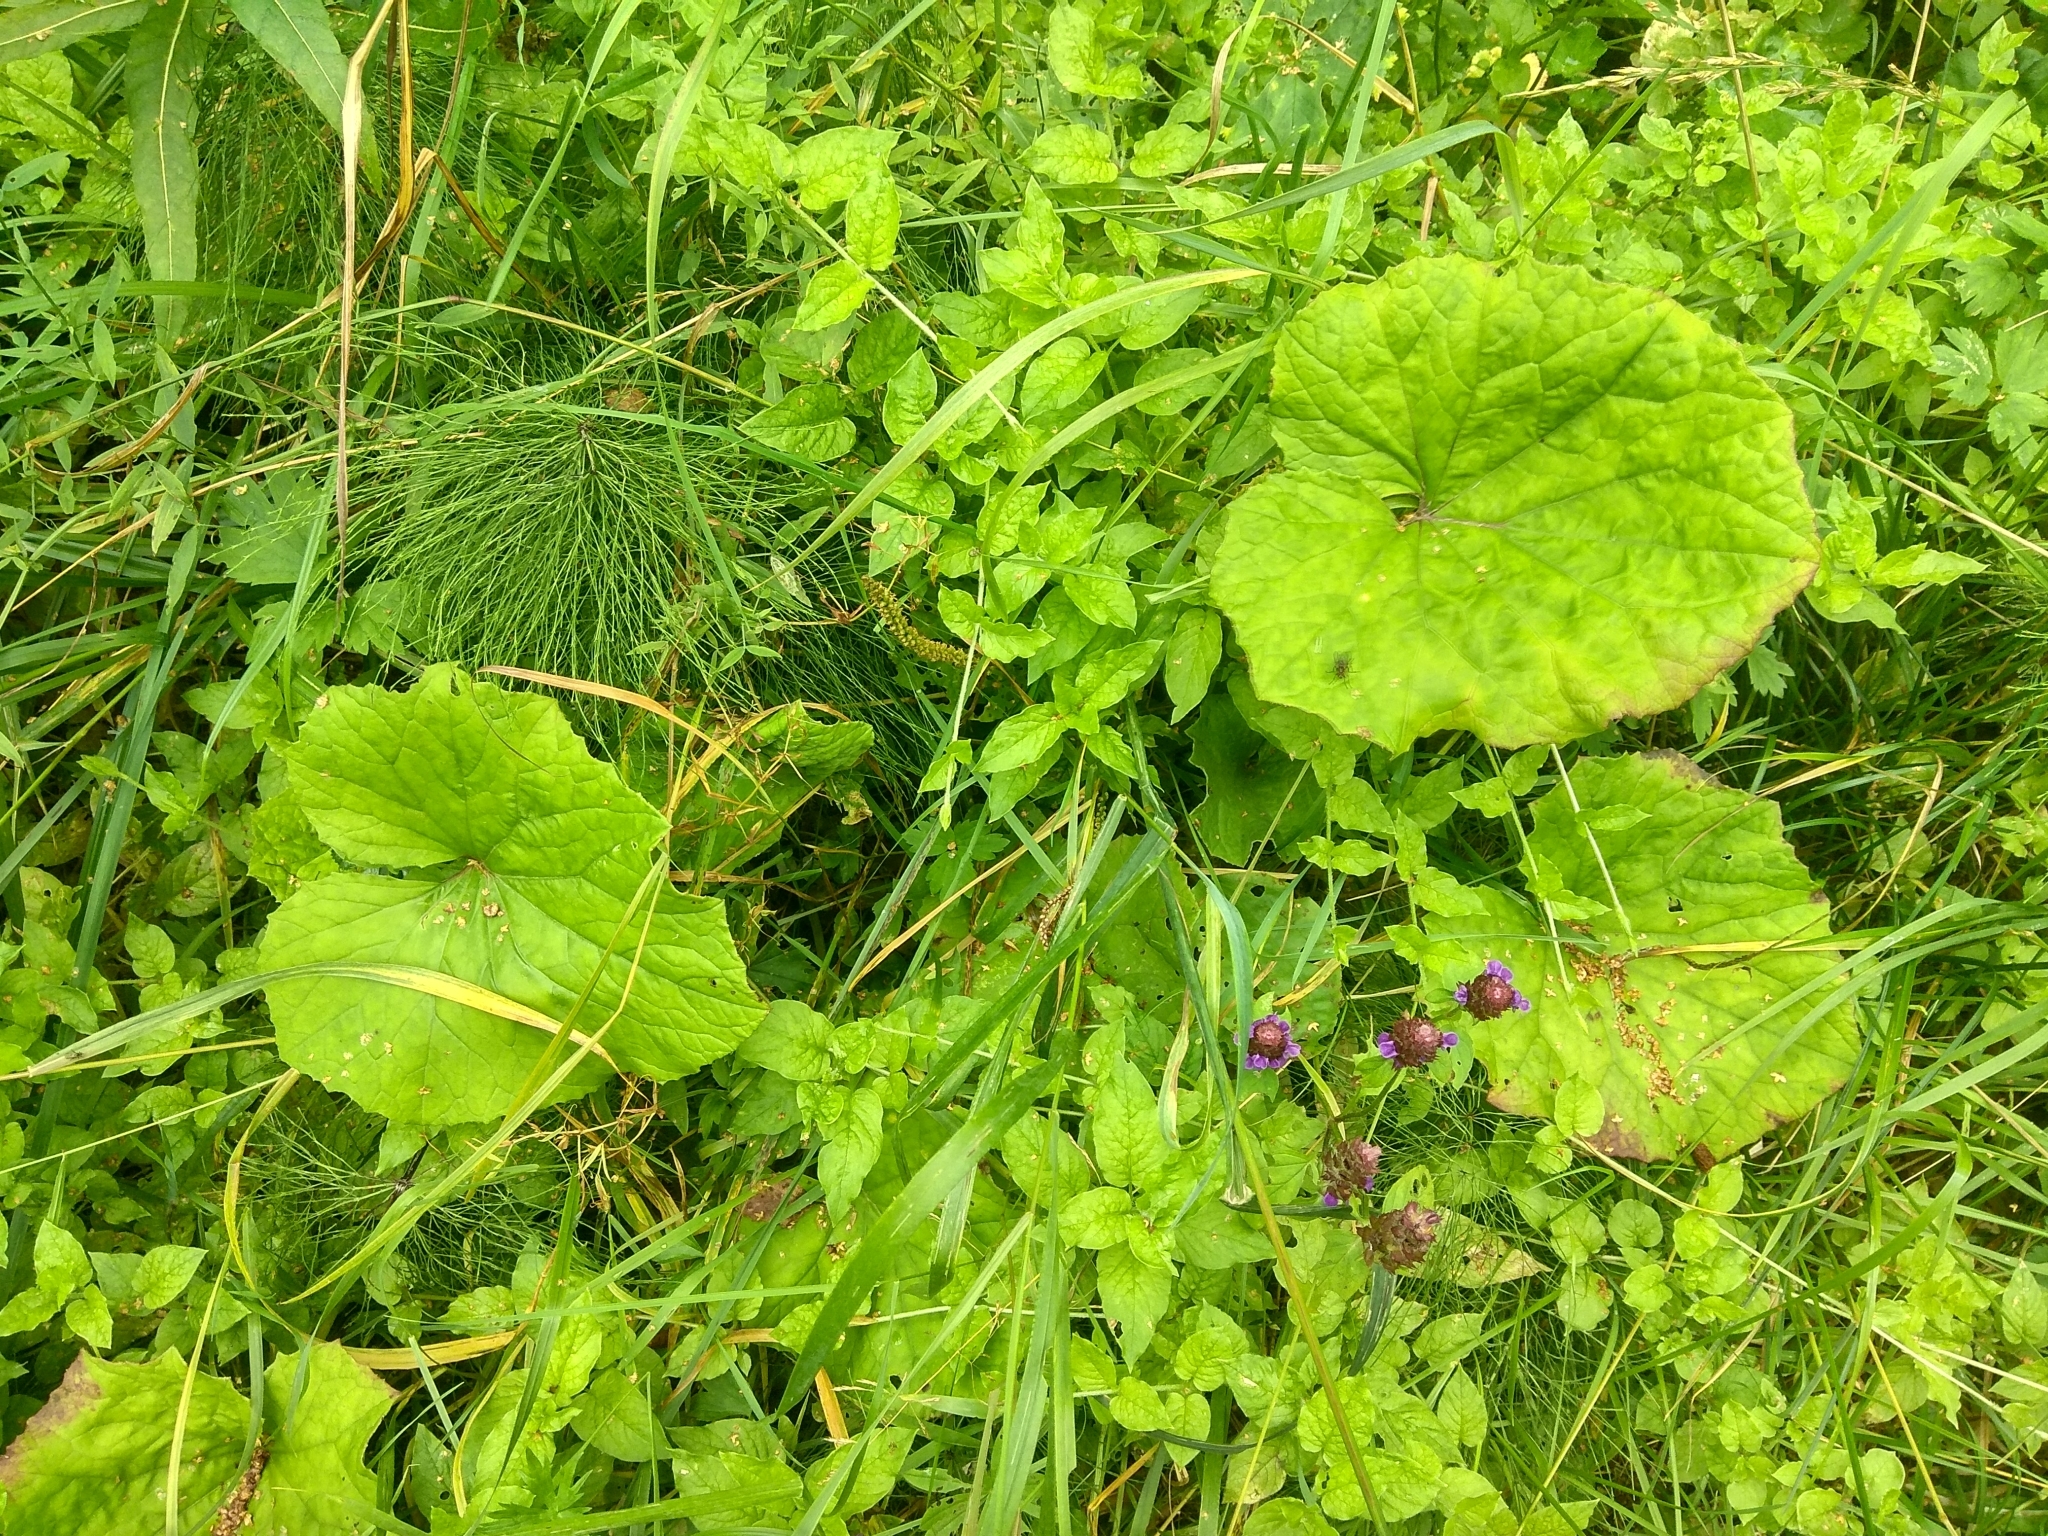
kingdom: Plantae
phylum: Tracheophyta
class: Magnoliopsida
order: Asterales
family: Asteraceae
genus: Tussilago
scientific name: Tussilago farfara
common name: Coltsfoot
